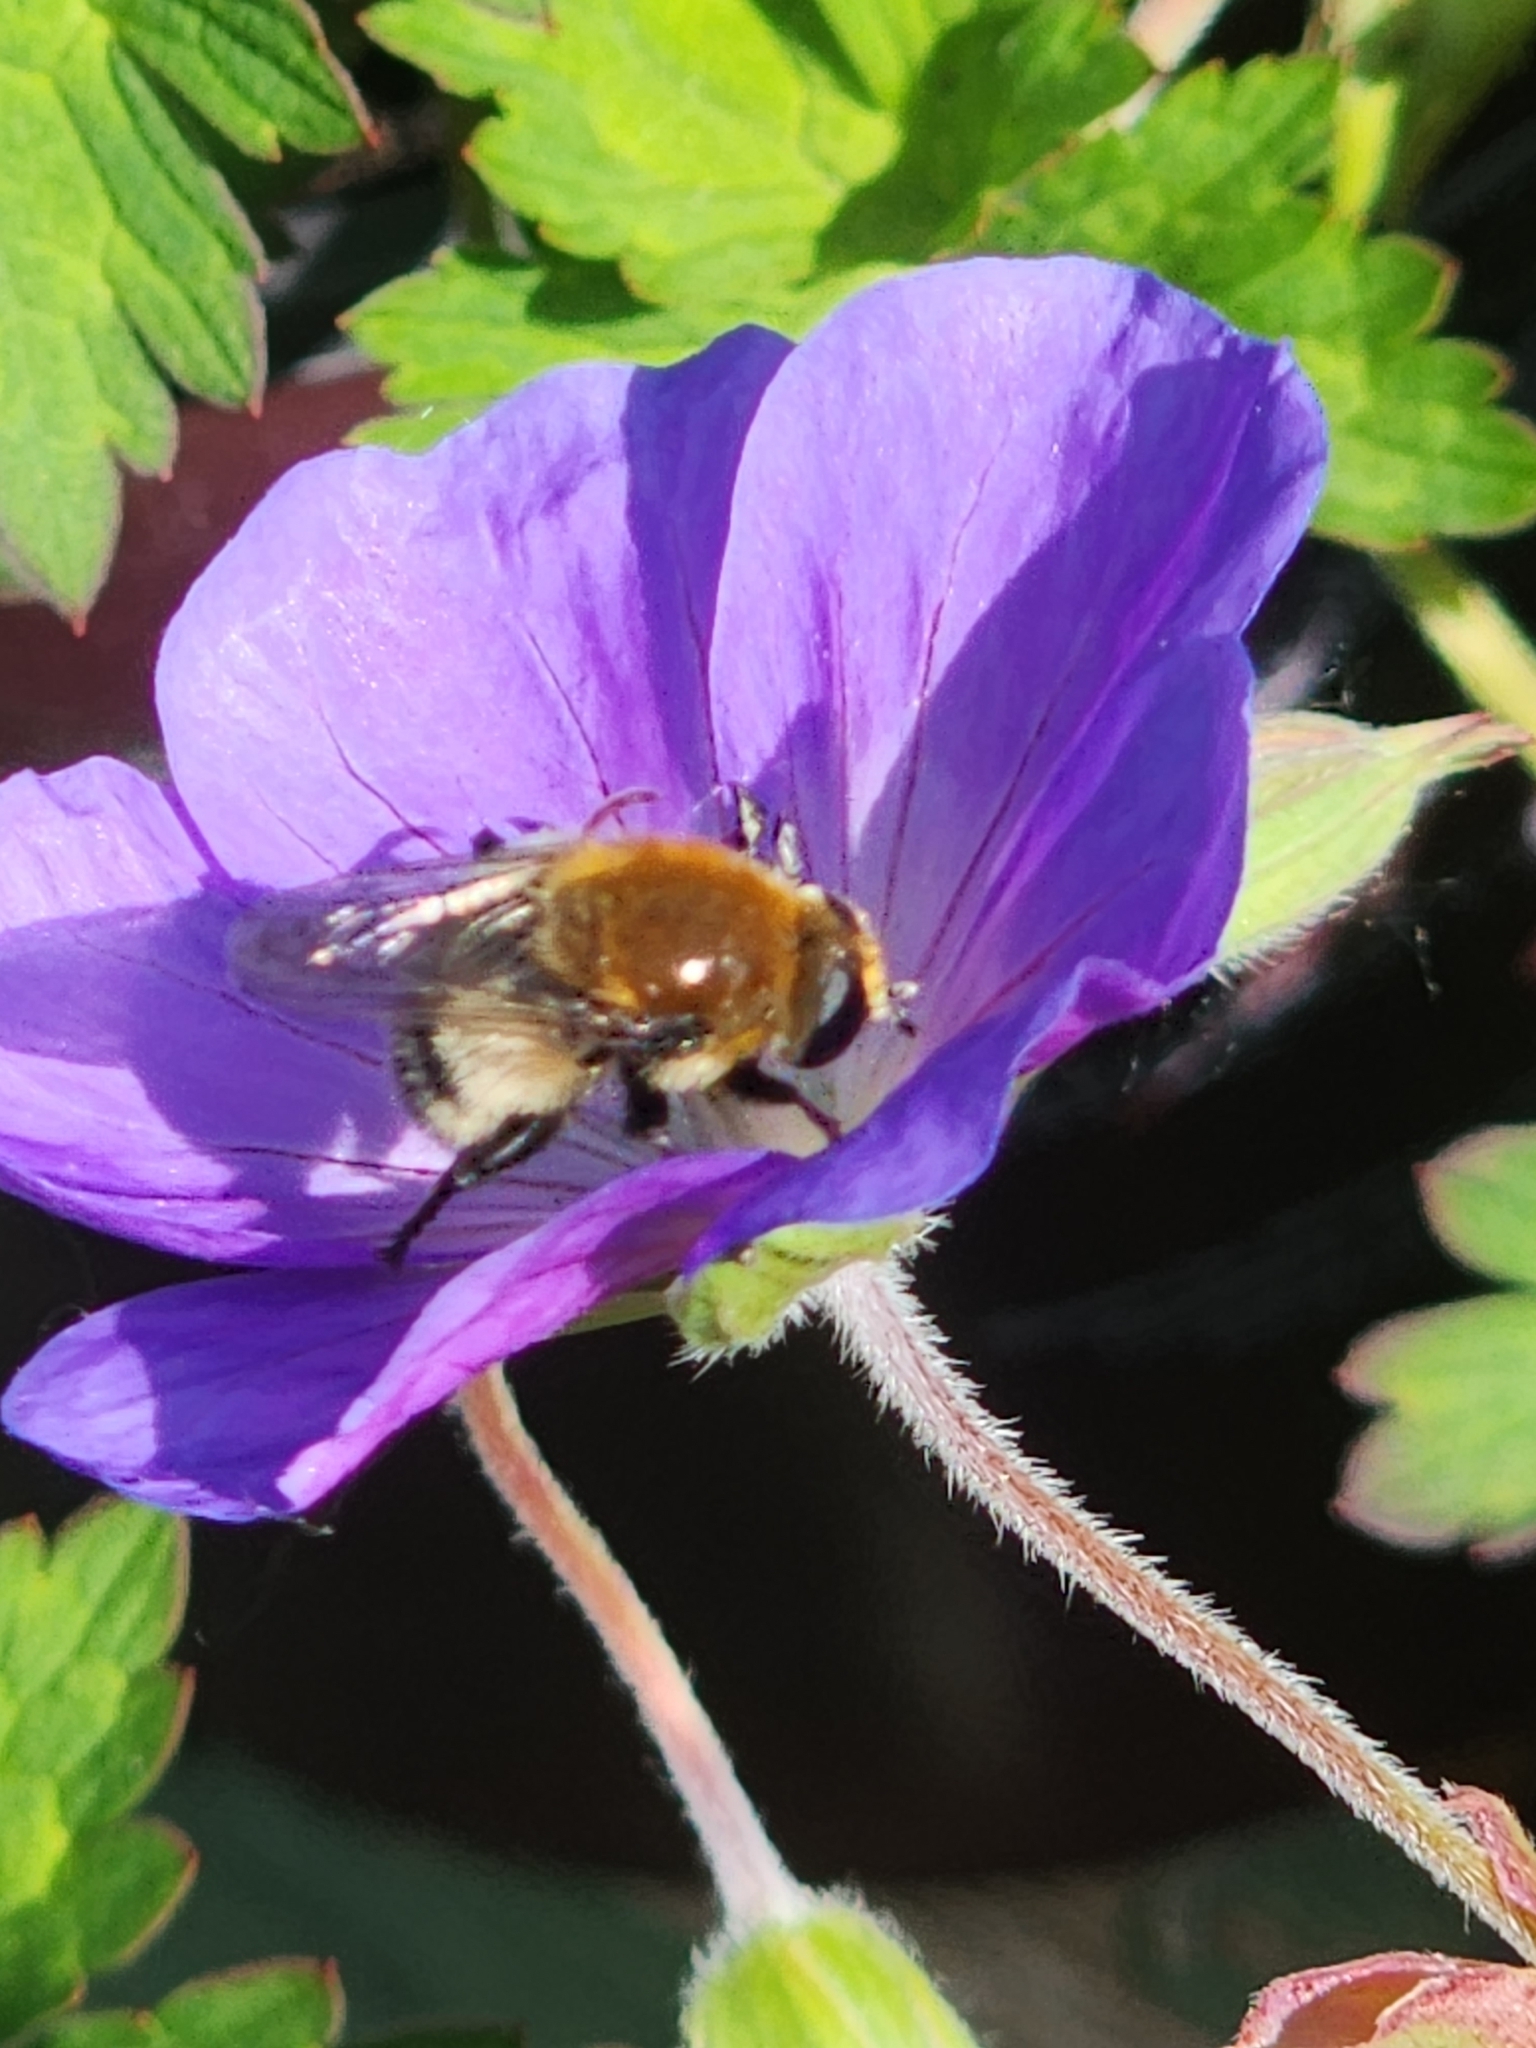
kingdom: Animalia
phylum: Arthropoda
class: Insecta
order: Diptera
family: Syrphidae
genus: Merodon
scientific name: Merodon equestris
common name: Greater bulb-fly
